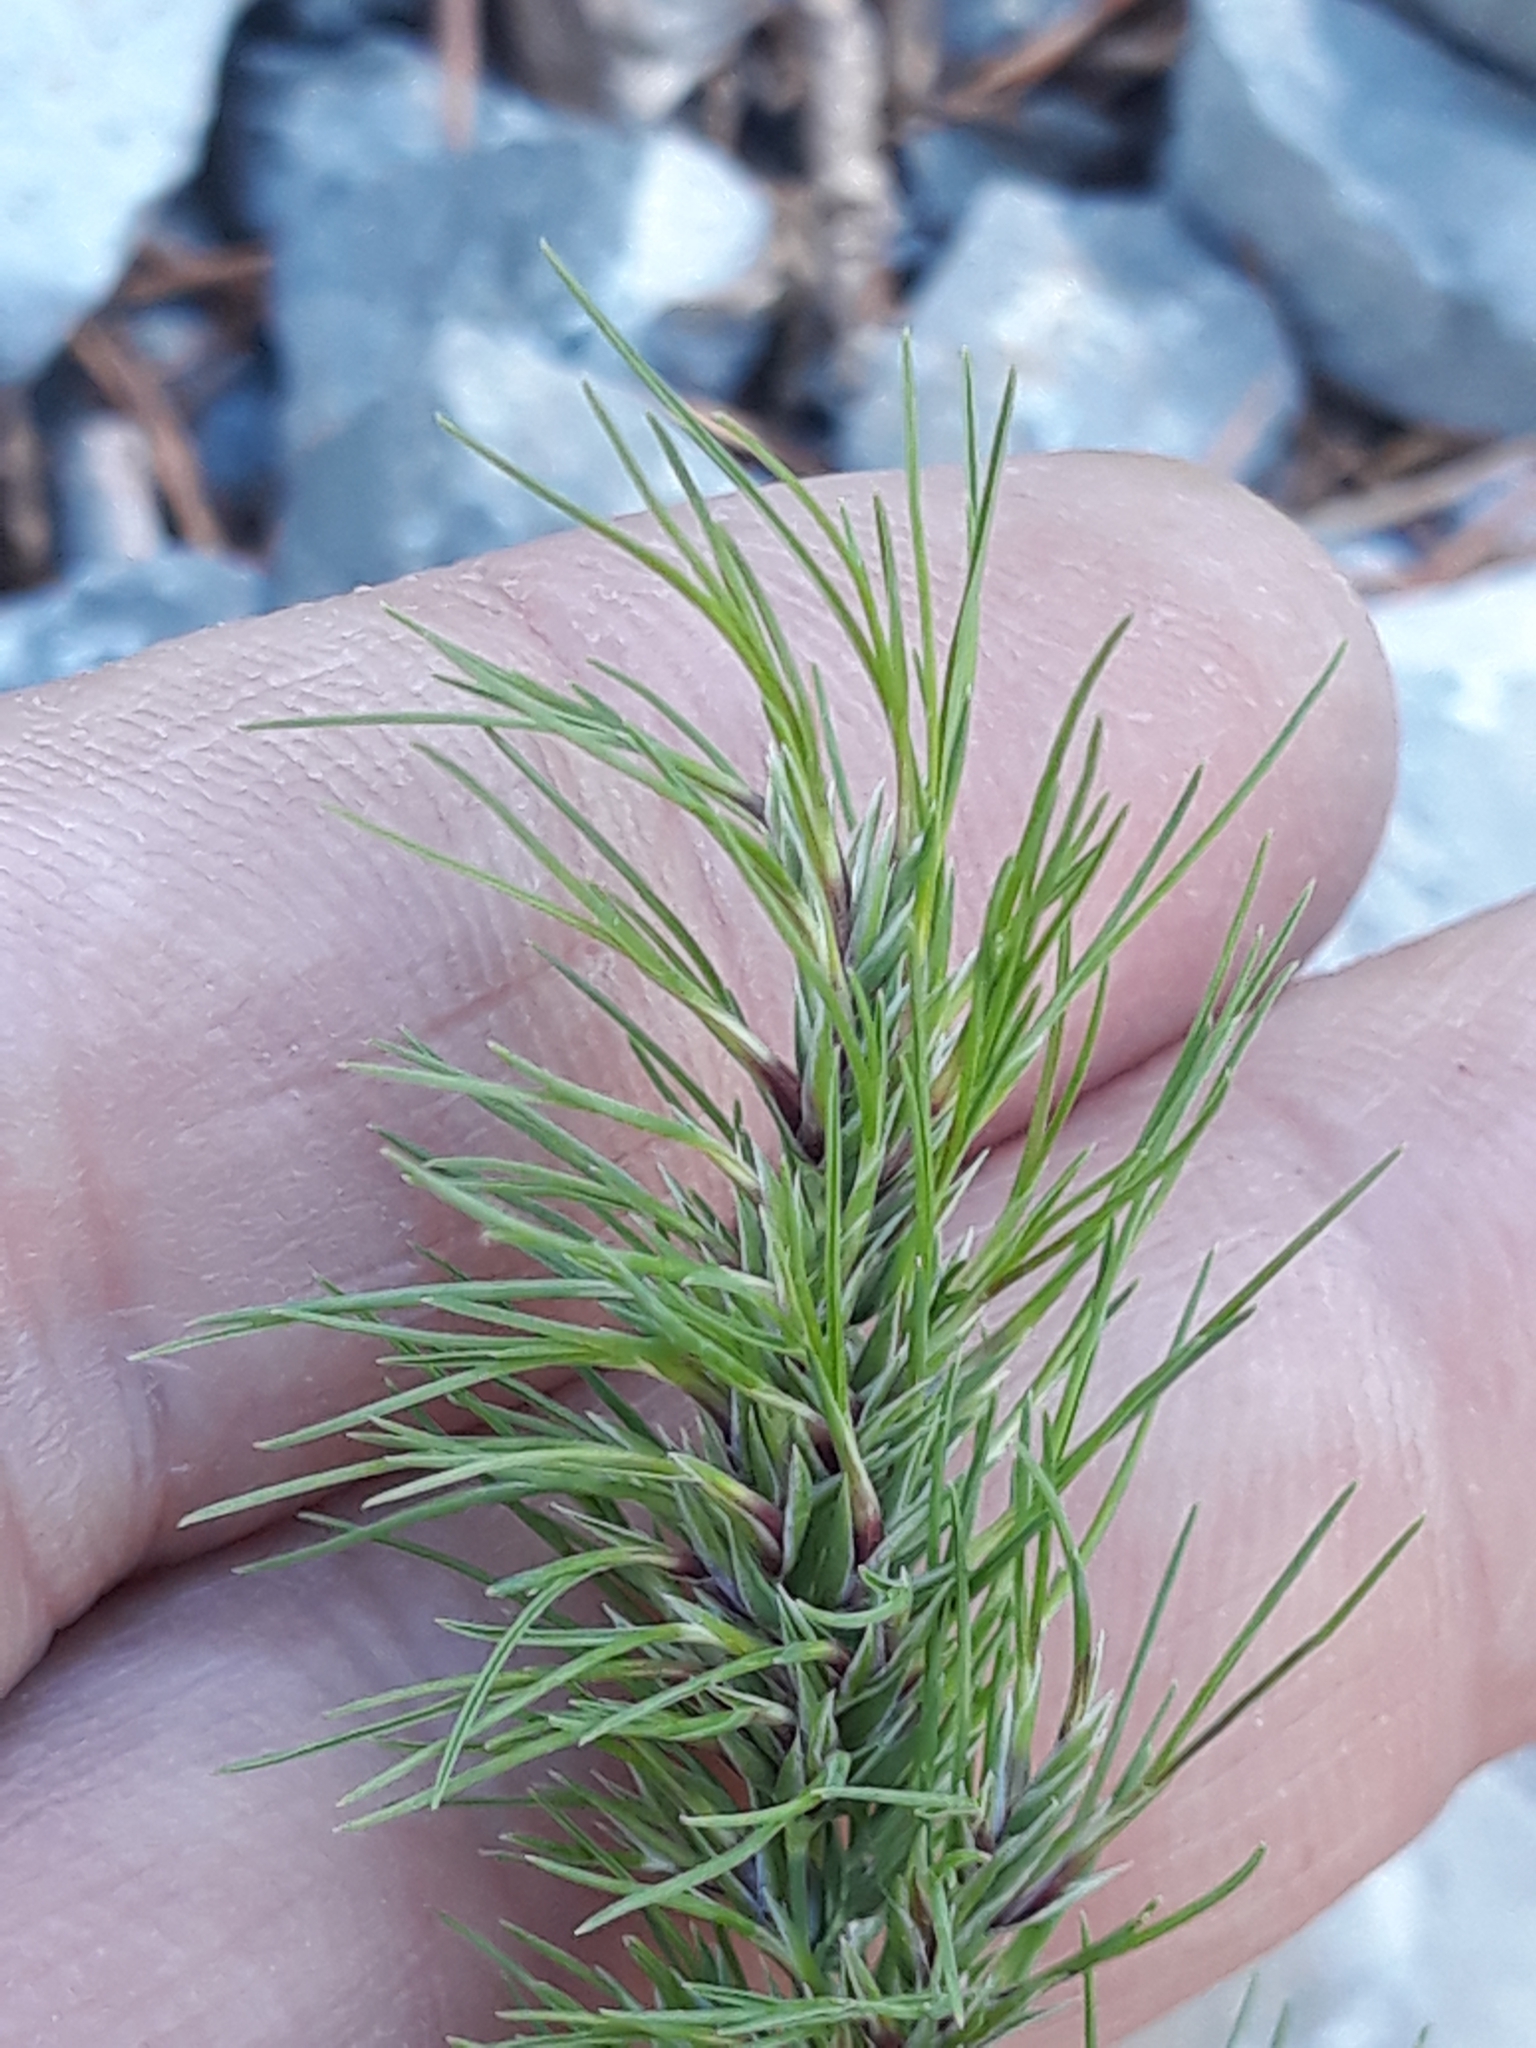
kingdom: Plantae
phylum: Tracheophyta
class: Liliopsida
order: Poales
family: Poaceae
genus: Poa
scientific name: Poa bulbosa
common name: Bulbous bluegrass
